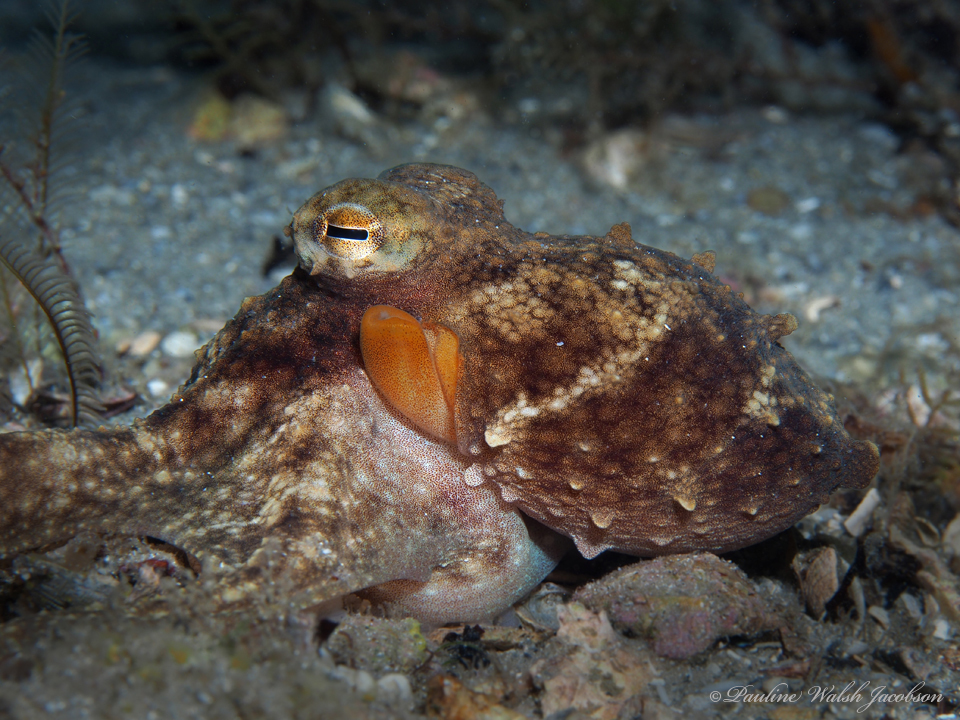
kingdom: Animalia
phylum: Mollusca
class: Cephalopoda
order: Octopoda
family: Octopodidae
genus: Octopus
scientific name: Octopus americanus
